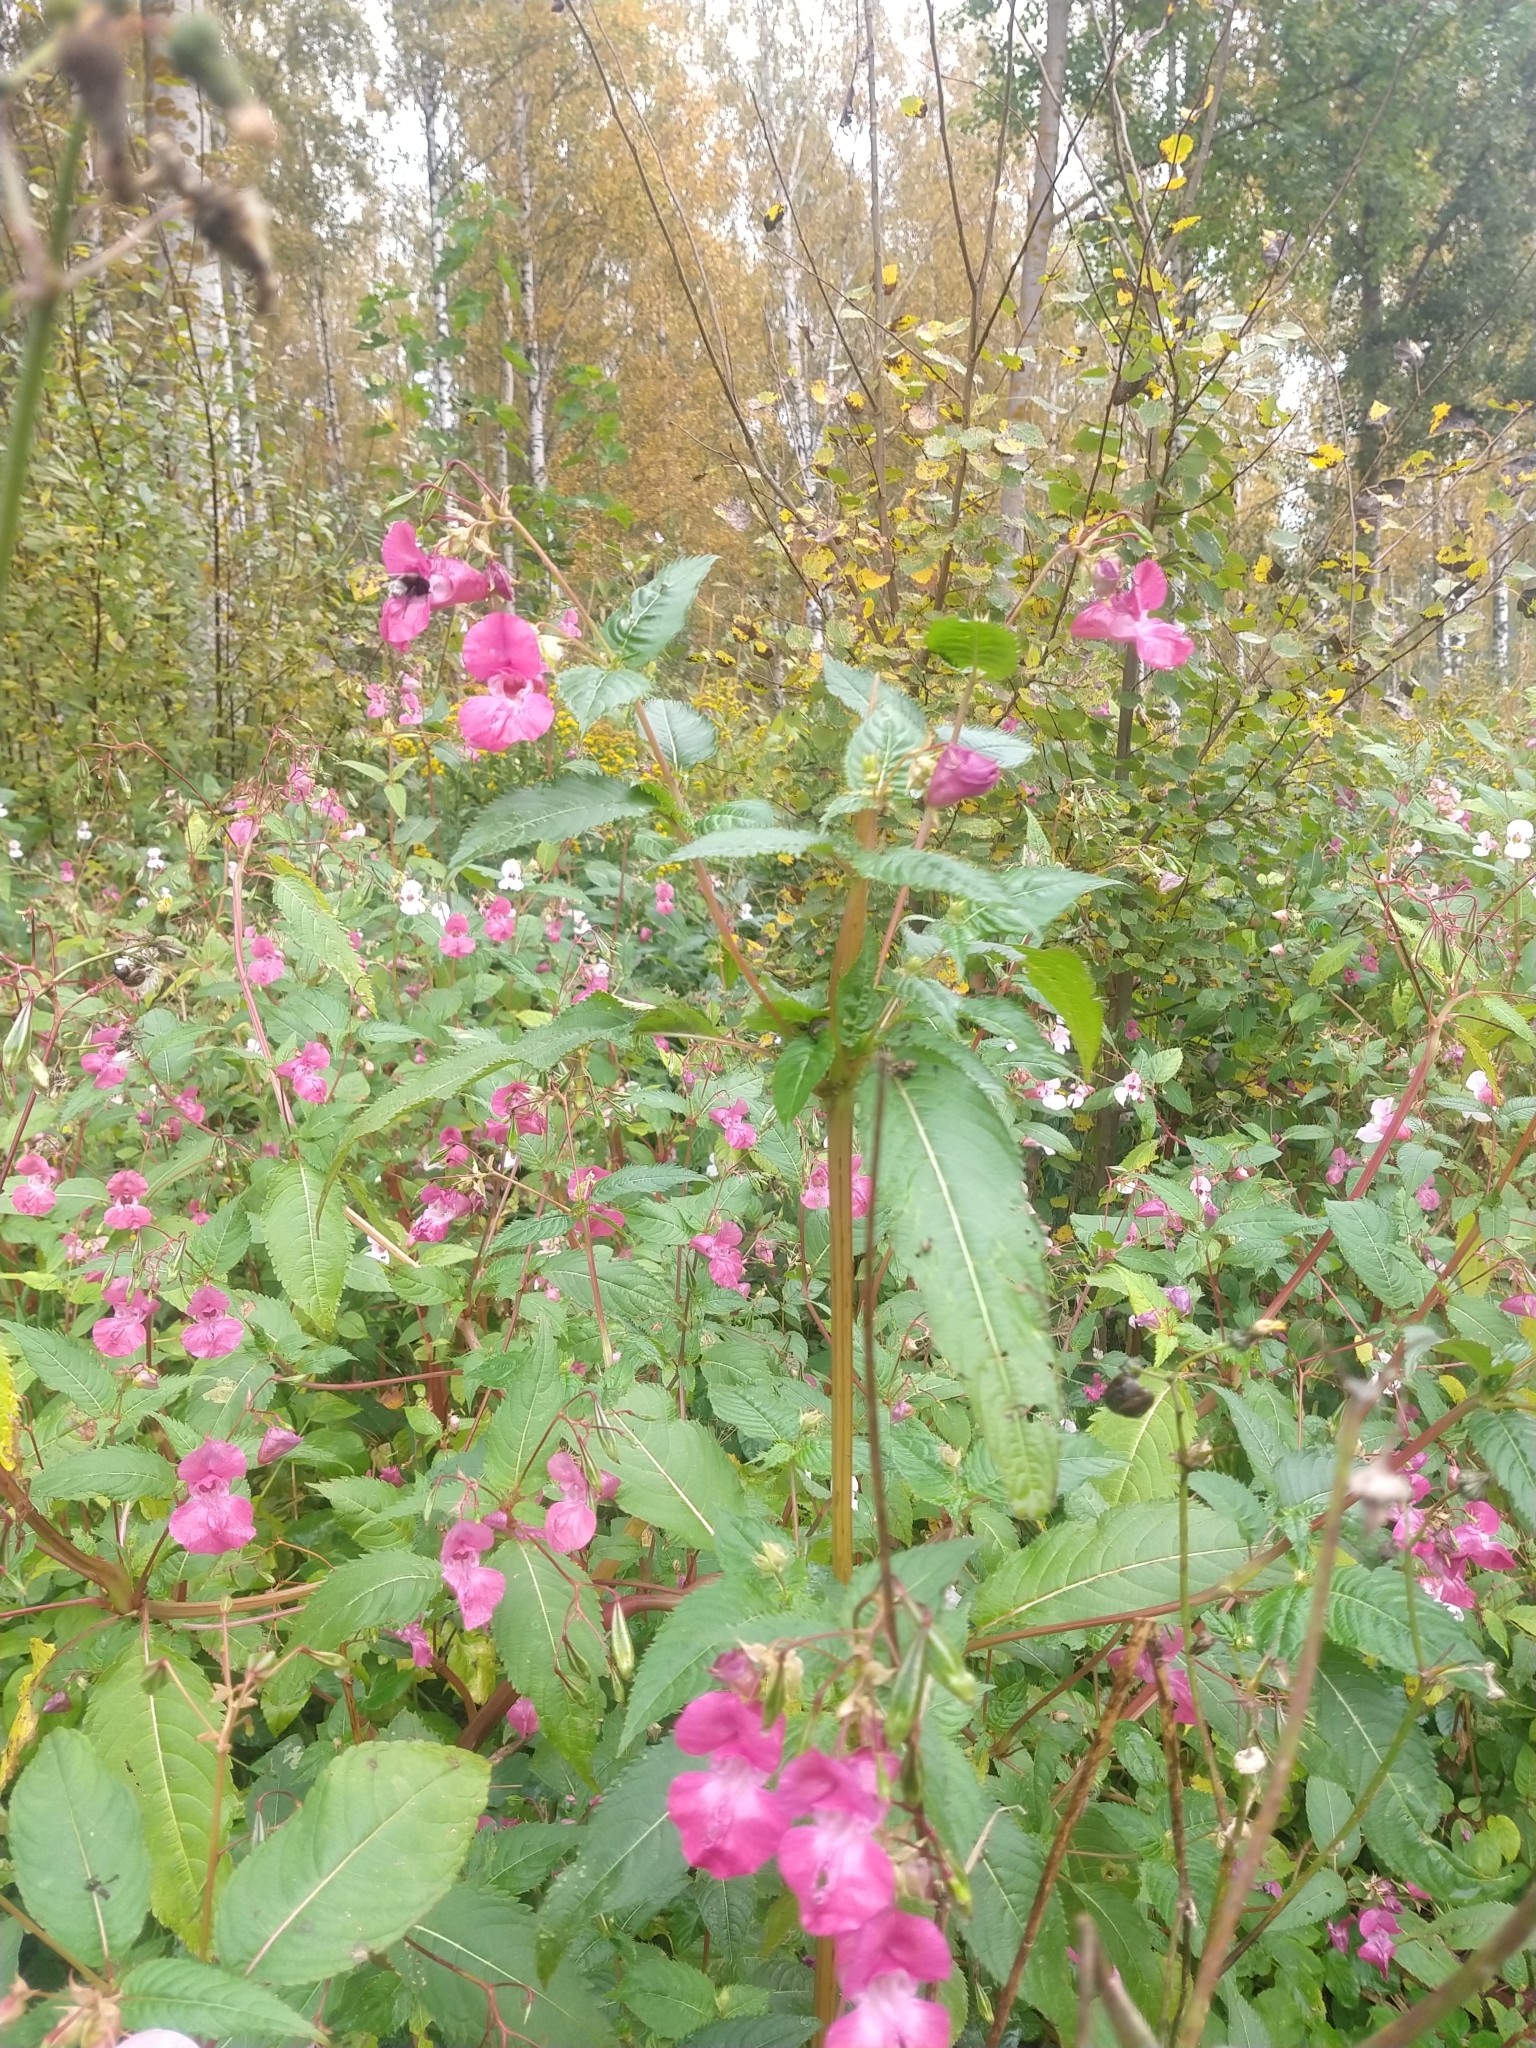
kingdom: Plantae
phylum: Tracheophyta
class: Magnoliopsida
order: Ericales
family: Balsaminaceae
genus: Impatiens
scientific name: Impatiens glandulifera
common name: Himalayan balsam
